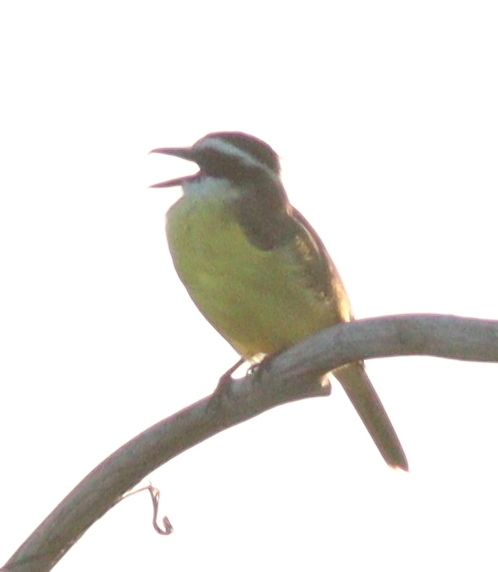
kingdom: Animalia
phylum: Chordata
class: Aves
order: Passeriformes
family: Tyrannidae
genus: Pitangus
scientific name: Pitangus sulphuratus
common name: Great kiskadee
